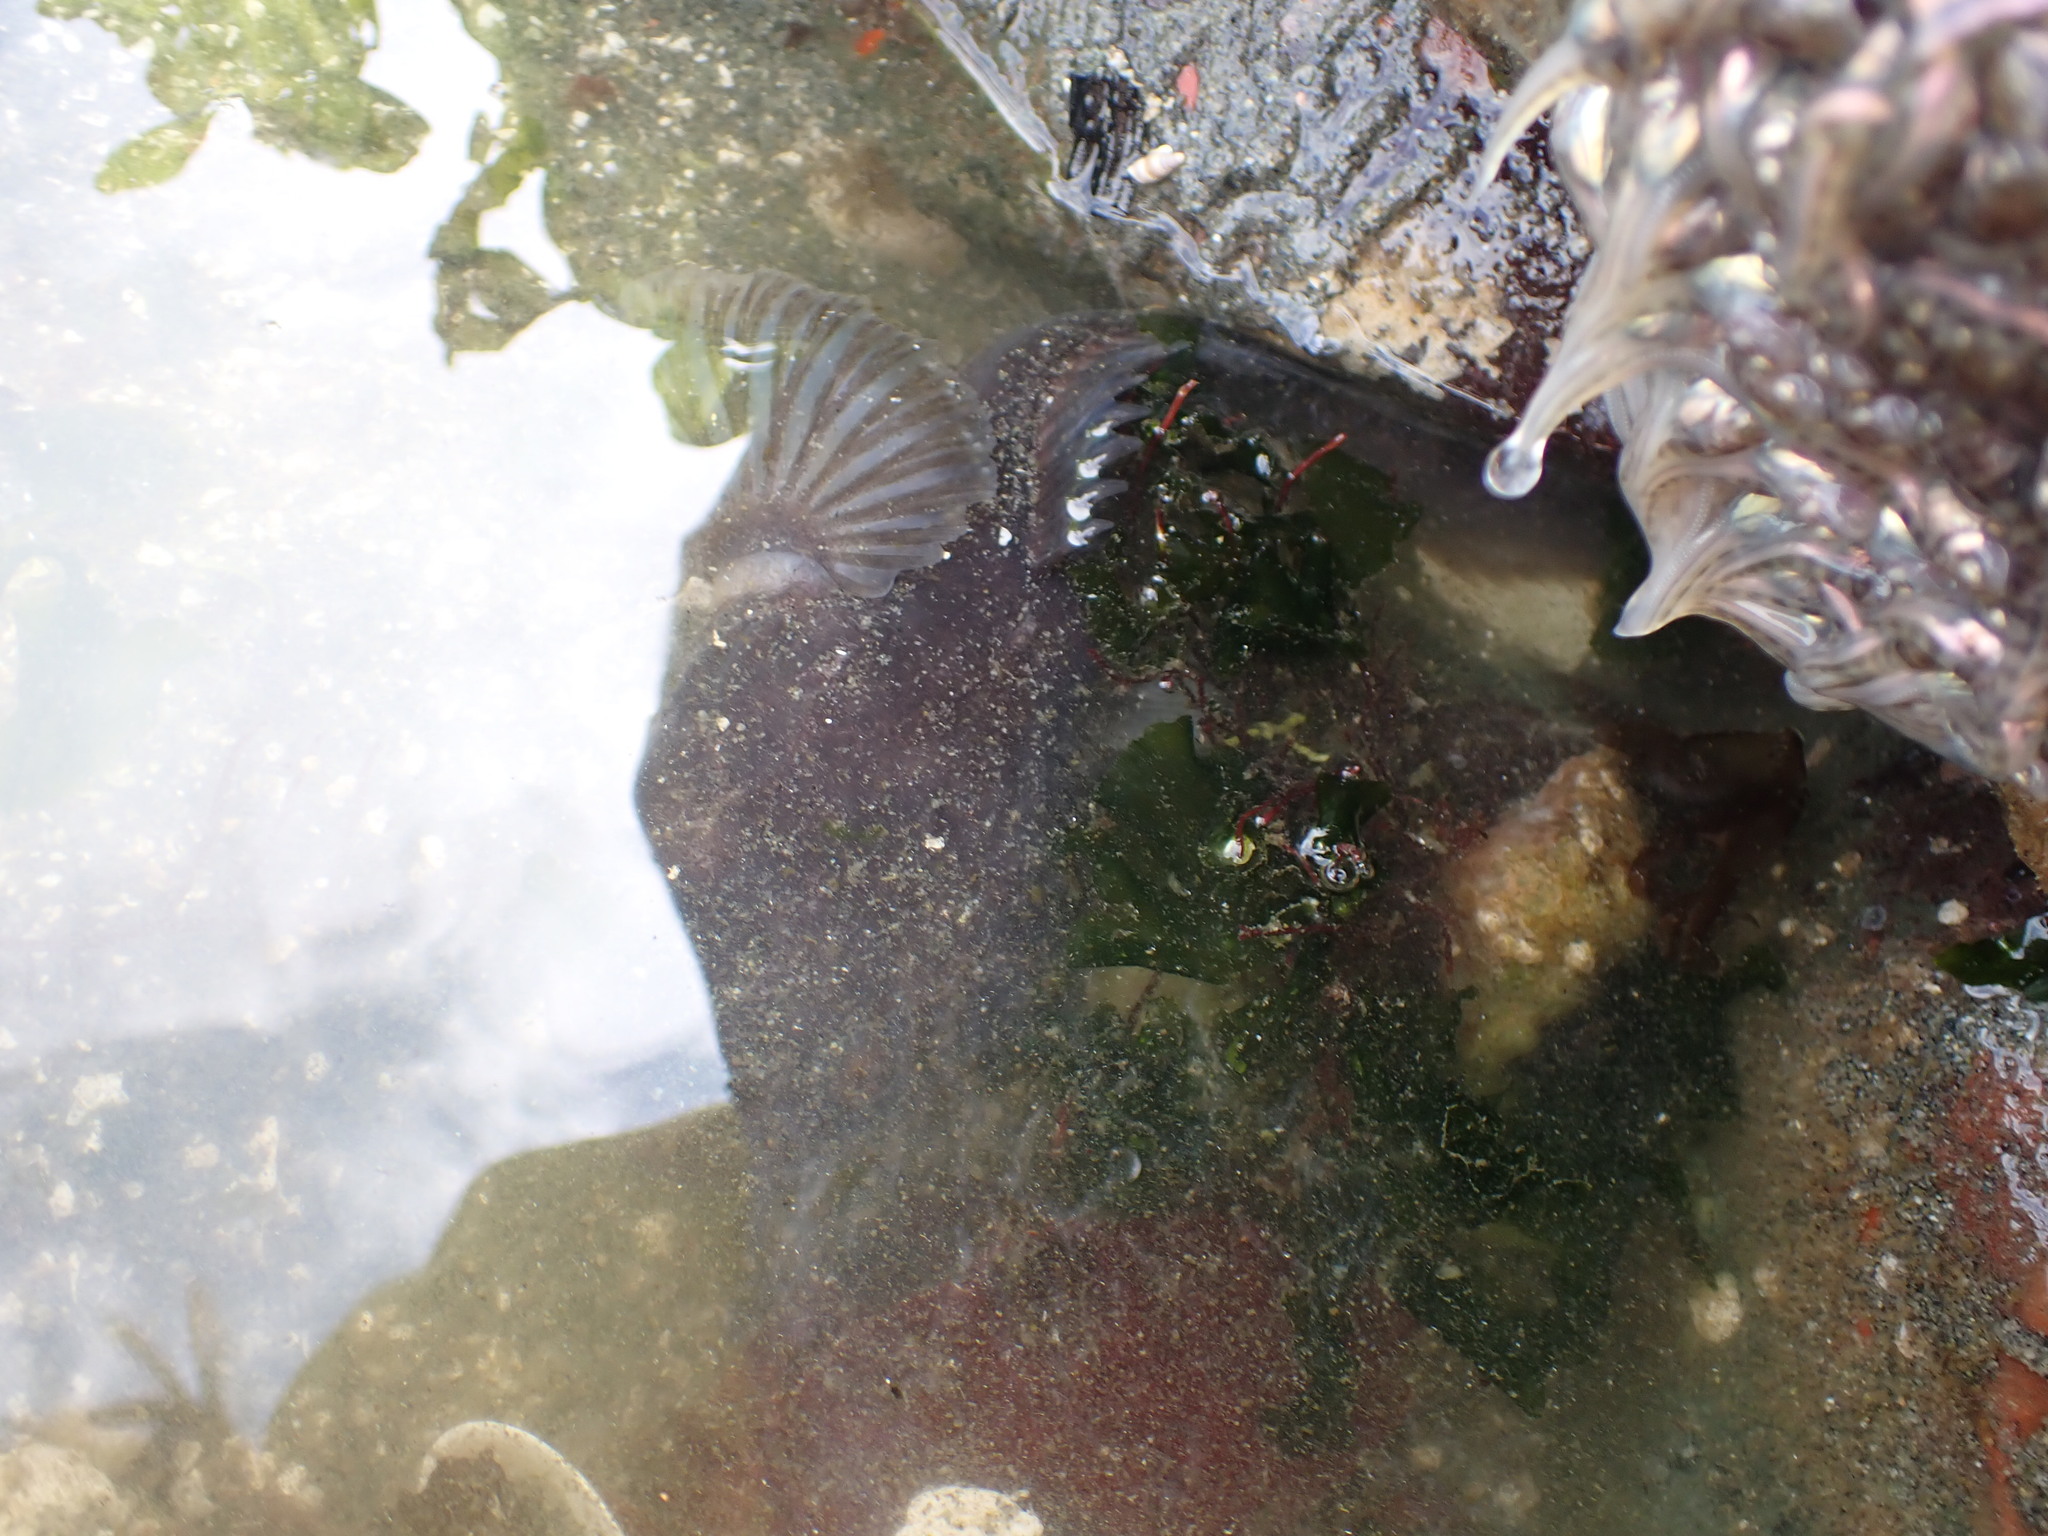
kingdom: Animalia
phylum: Chordata
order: Batrachoidiformes
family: Batrachoididae
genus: Porichthys
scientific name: Porichthys notatus
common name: Plainfin midshipman
